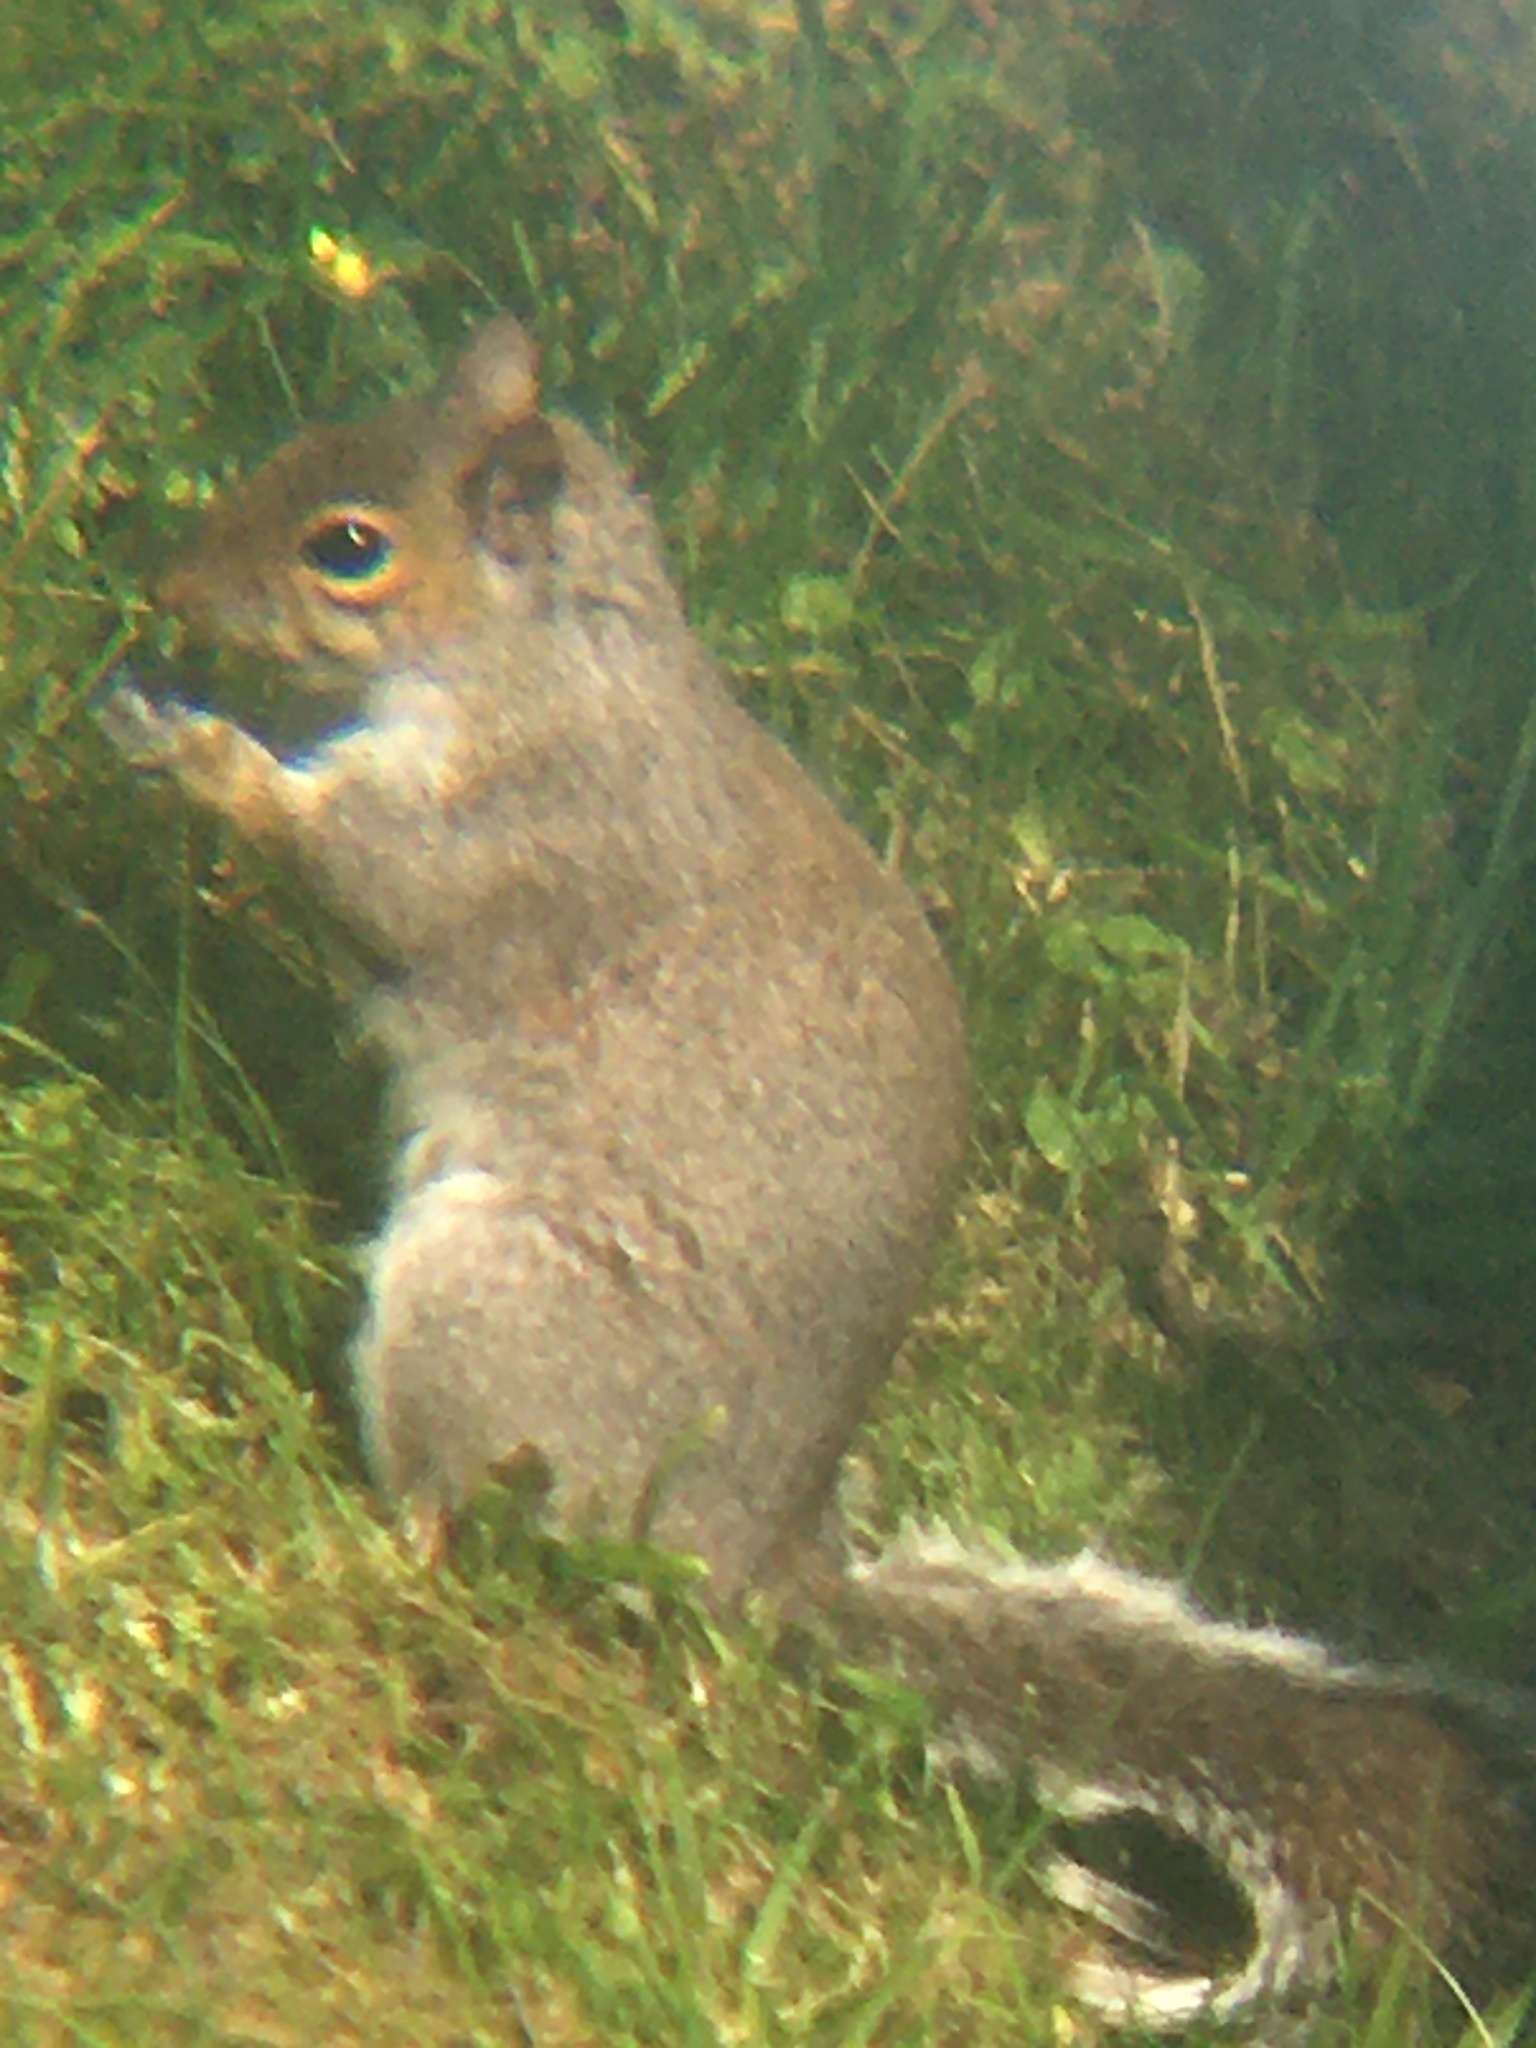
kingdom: Animalia
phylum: Chordata
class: Mammalia
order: Rodentia
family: Sciuridae
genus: Sciurus
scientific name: Sciurus carolinensis
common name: Eastern gray squirrel
